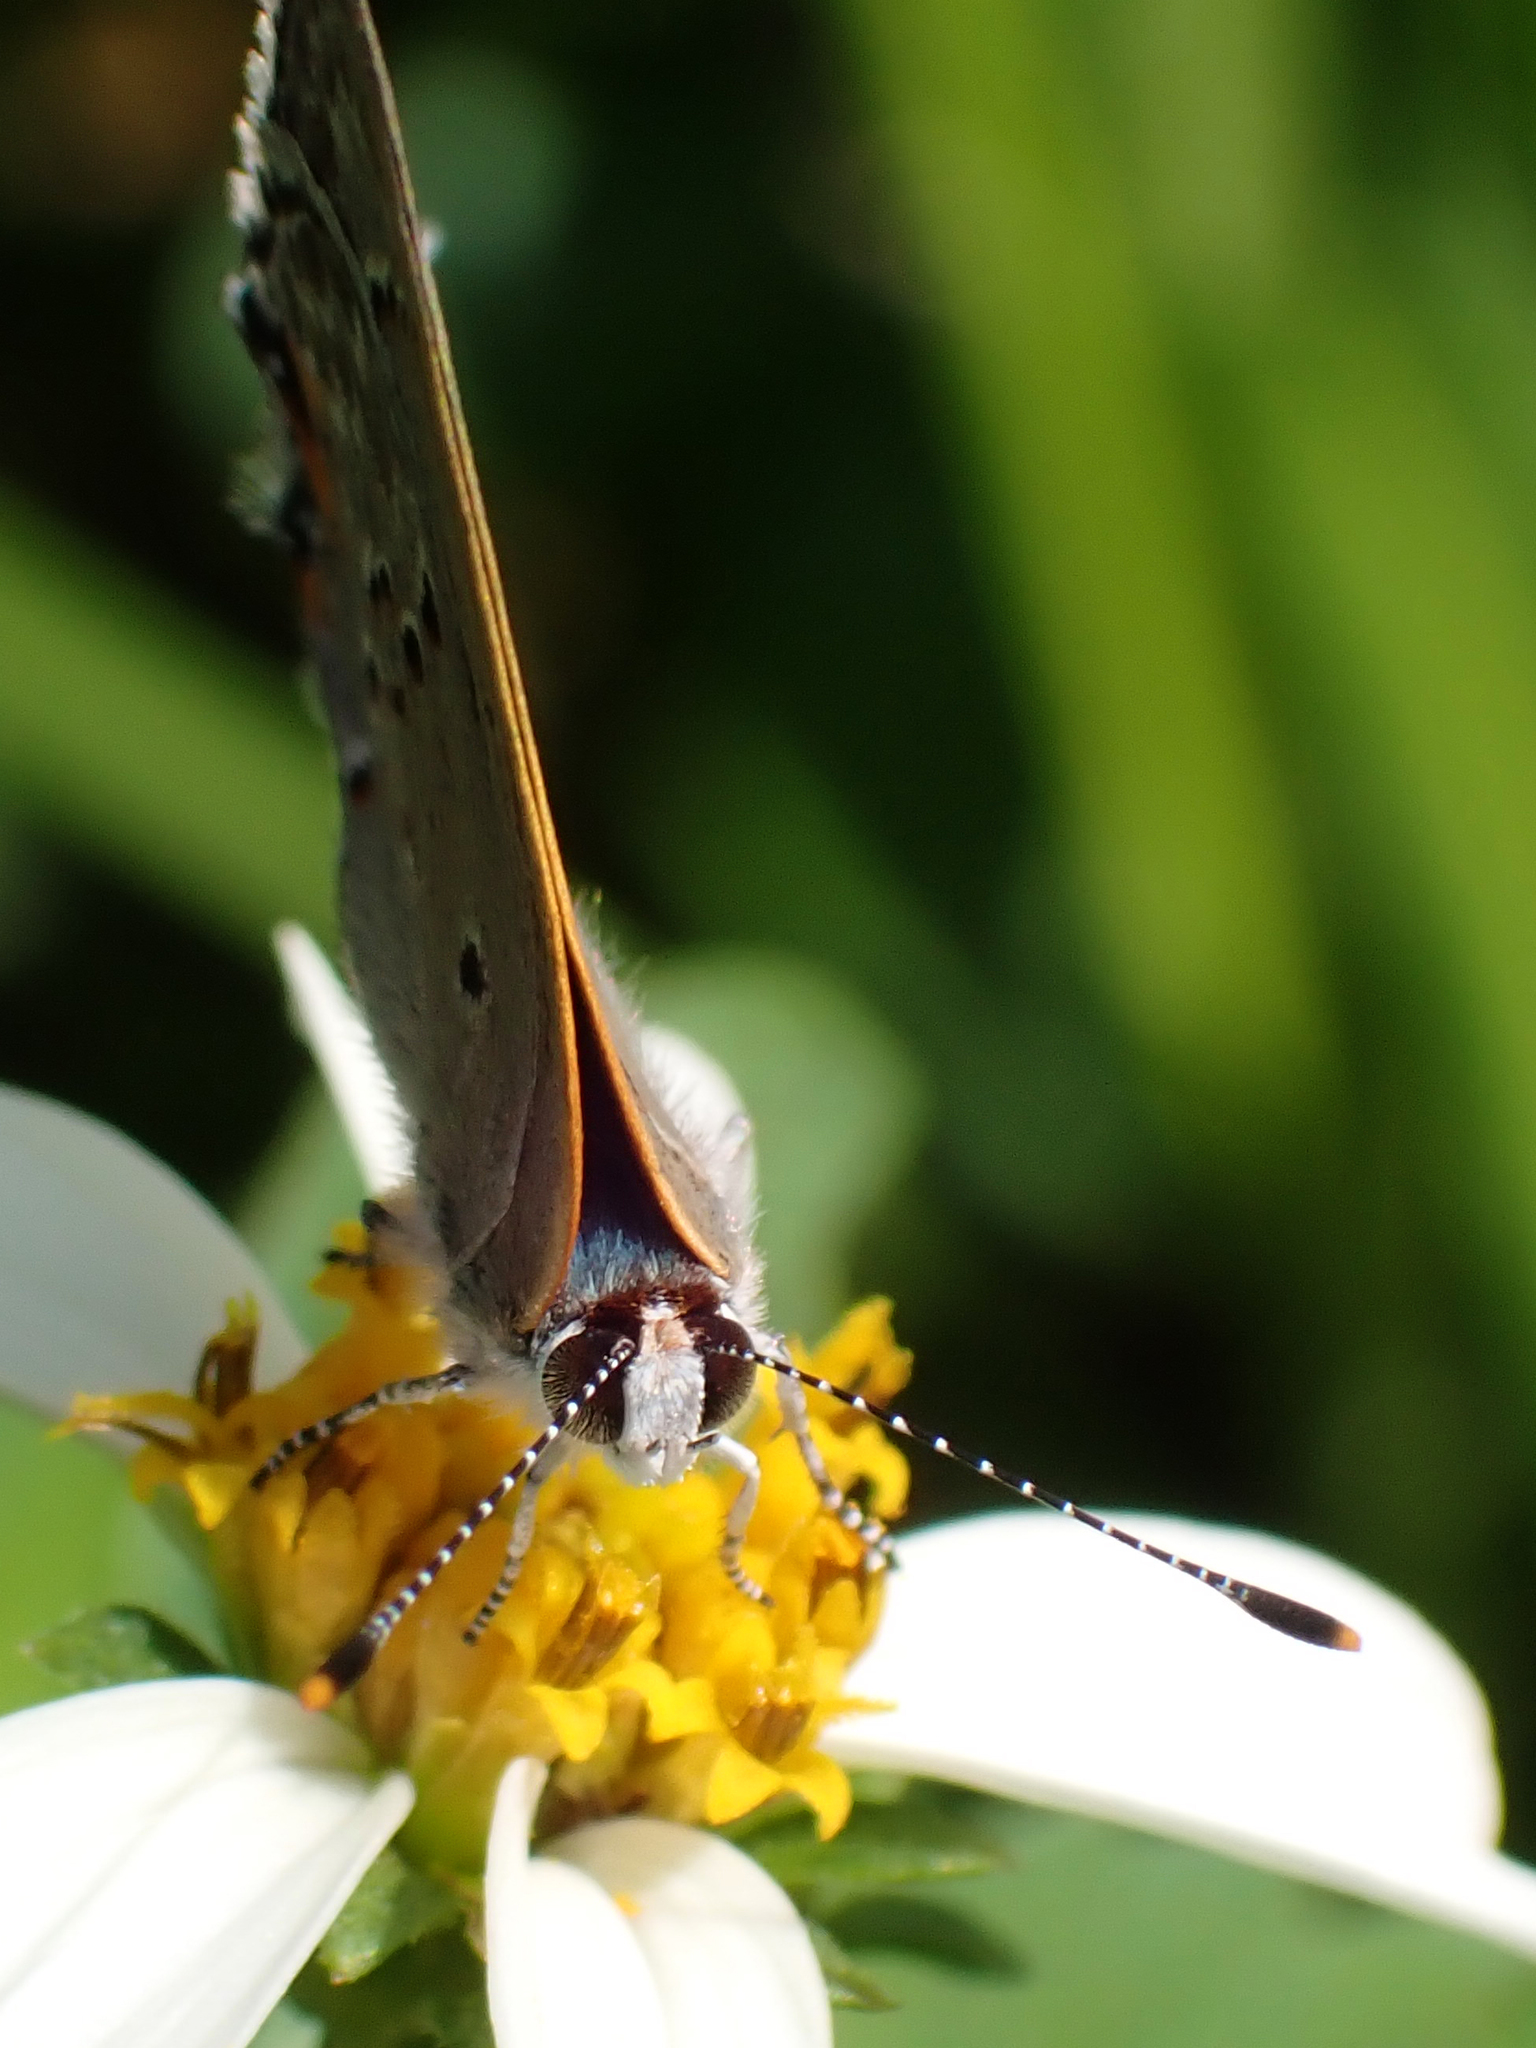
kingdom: Animalia
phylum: Arthropoda
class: Insecta
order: Lepidoptera
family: Lycaenidae
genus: Callicista
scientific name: Callicista columella
